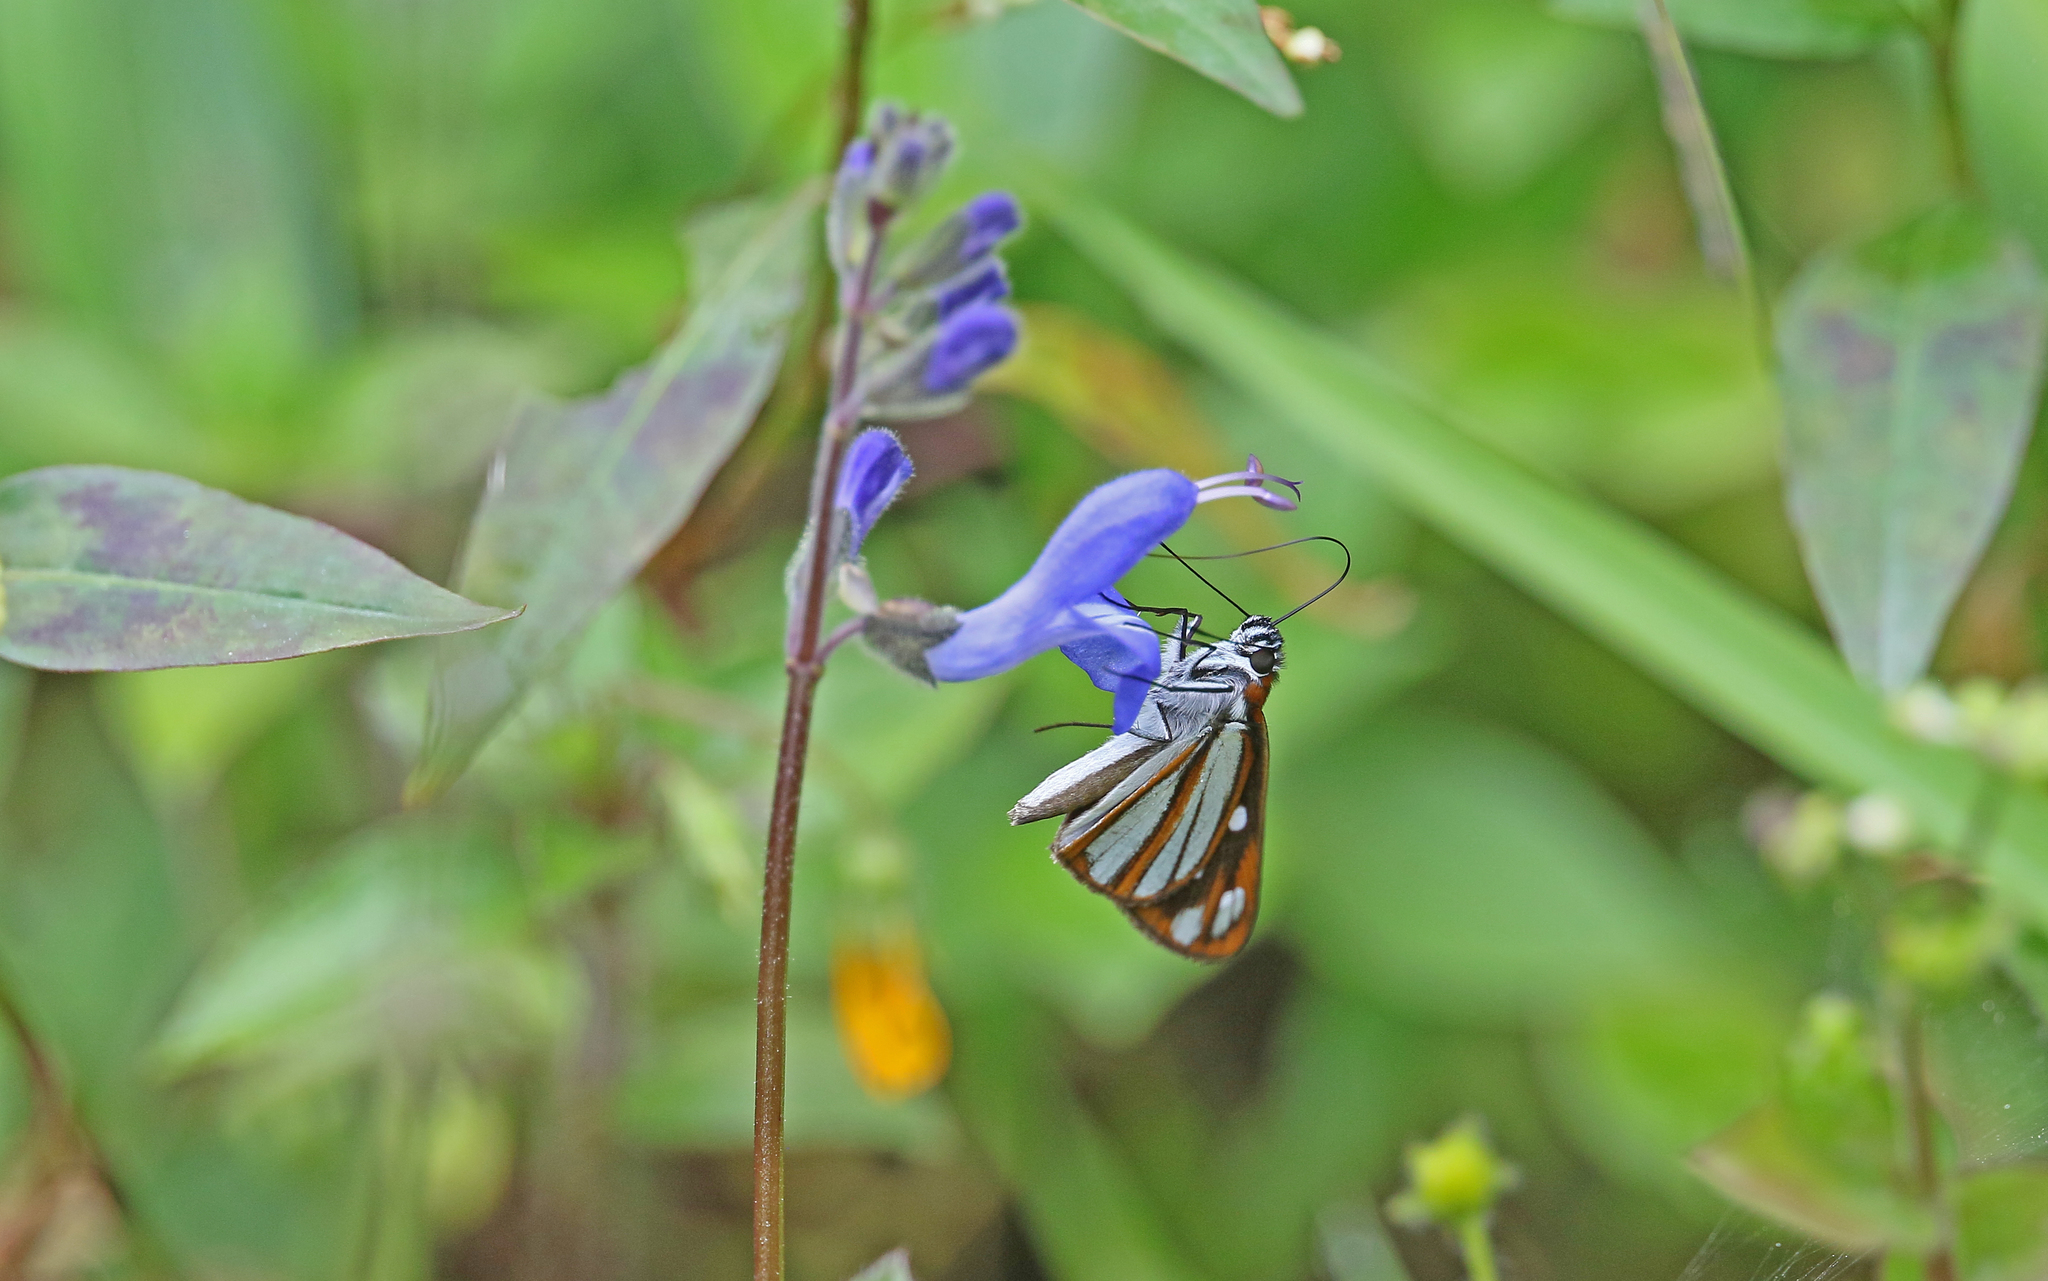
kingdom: Animalia
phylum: Arthropoda
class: Insecta
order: Lepidoptera
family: Hesperiidae
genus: Corra
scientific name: Corra
